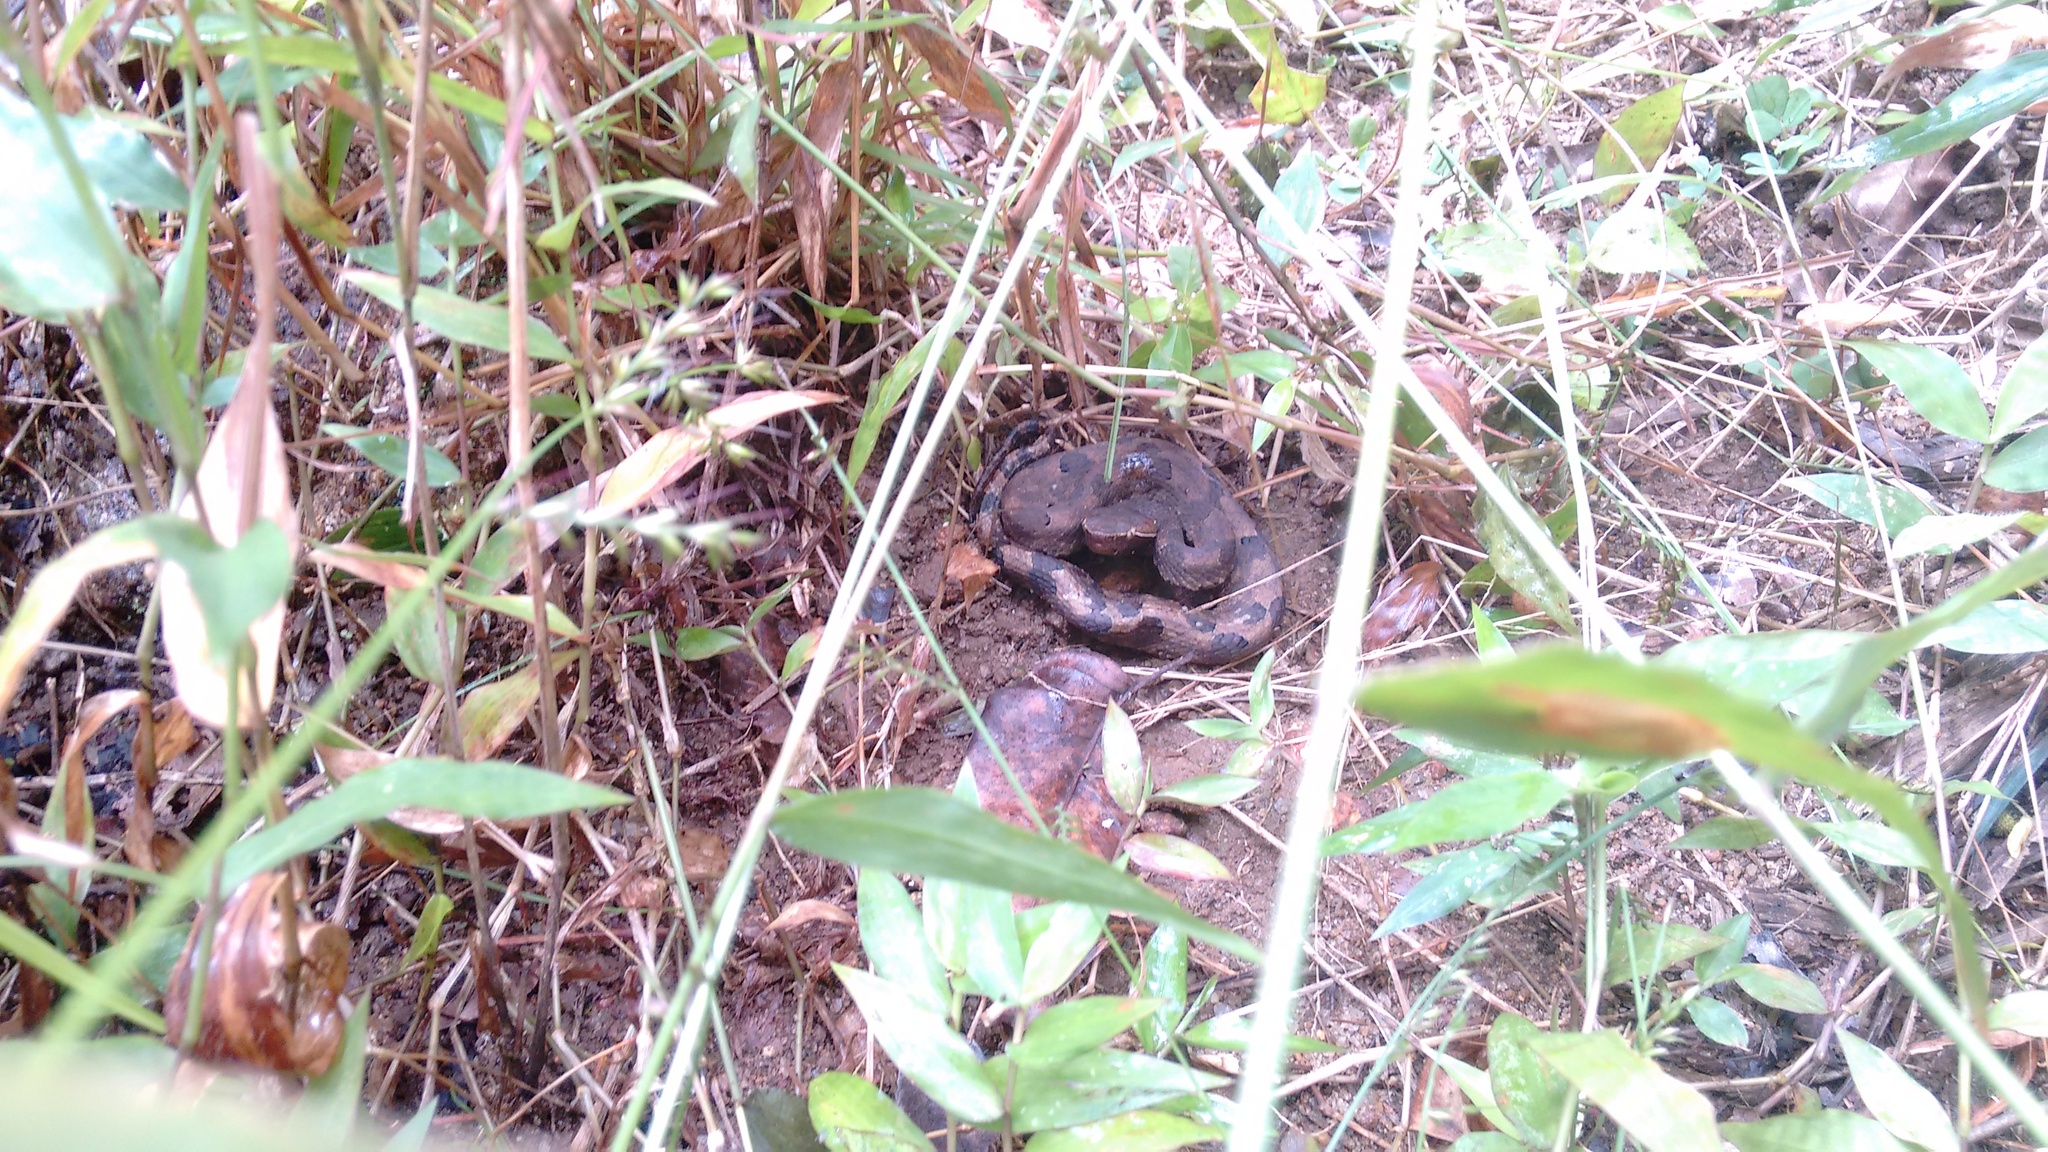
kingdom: Animalia
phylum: Chordata
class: Squamata
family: Viperidae
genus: Hypnale
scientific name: Hypnale hypnale
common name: Hump-nosed moccasin
